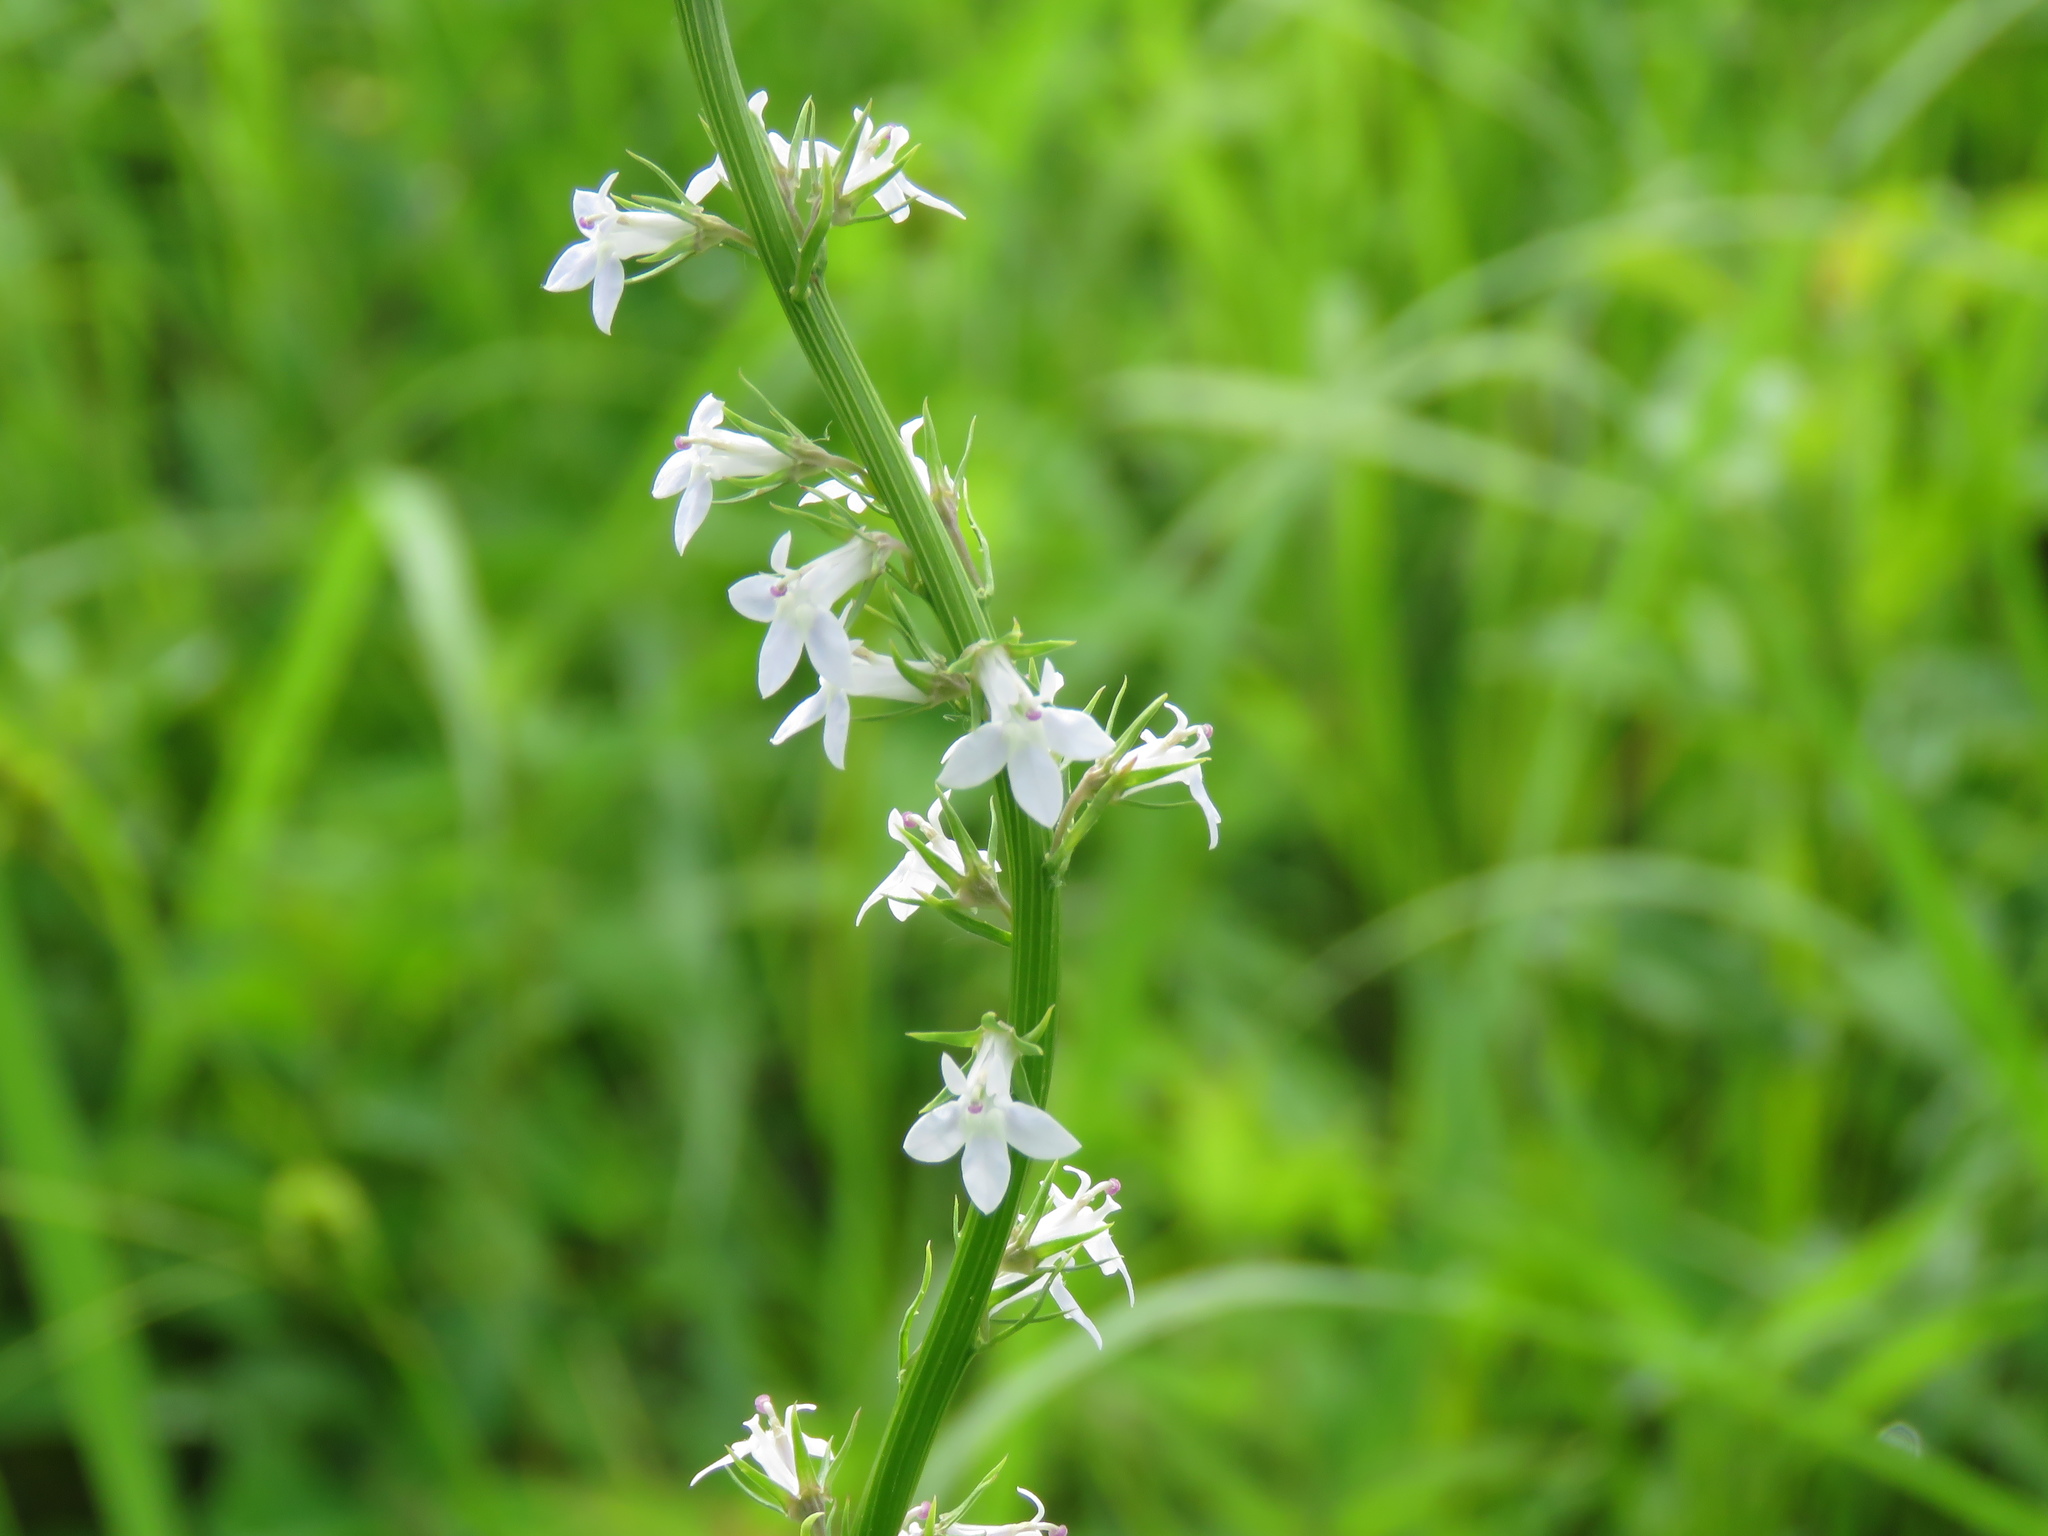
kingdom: Plantae
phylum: Tracheophyta
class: Magnoliopsida
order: Asterales
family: Campanulaceae
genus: Lobelia
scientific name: Lobelia spicata
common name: Pale-spike lobelia
